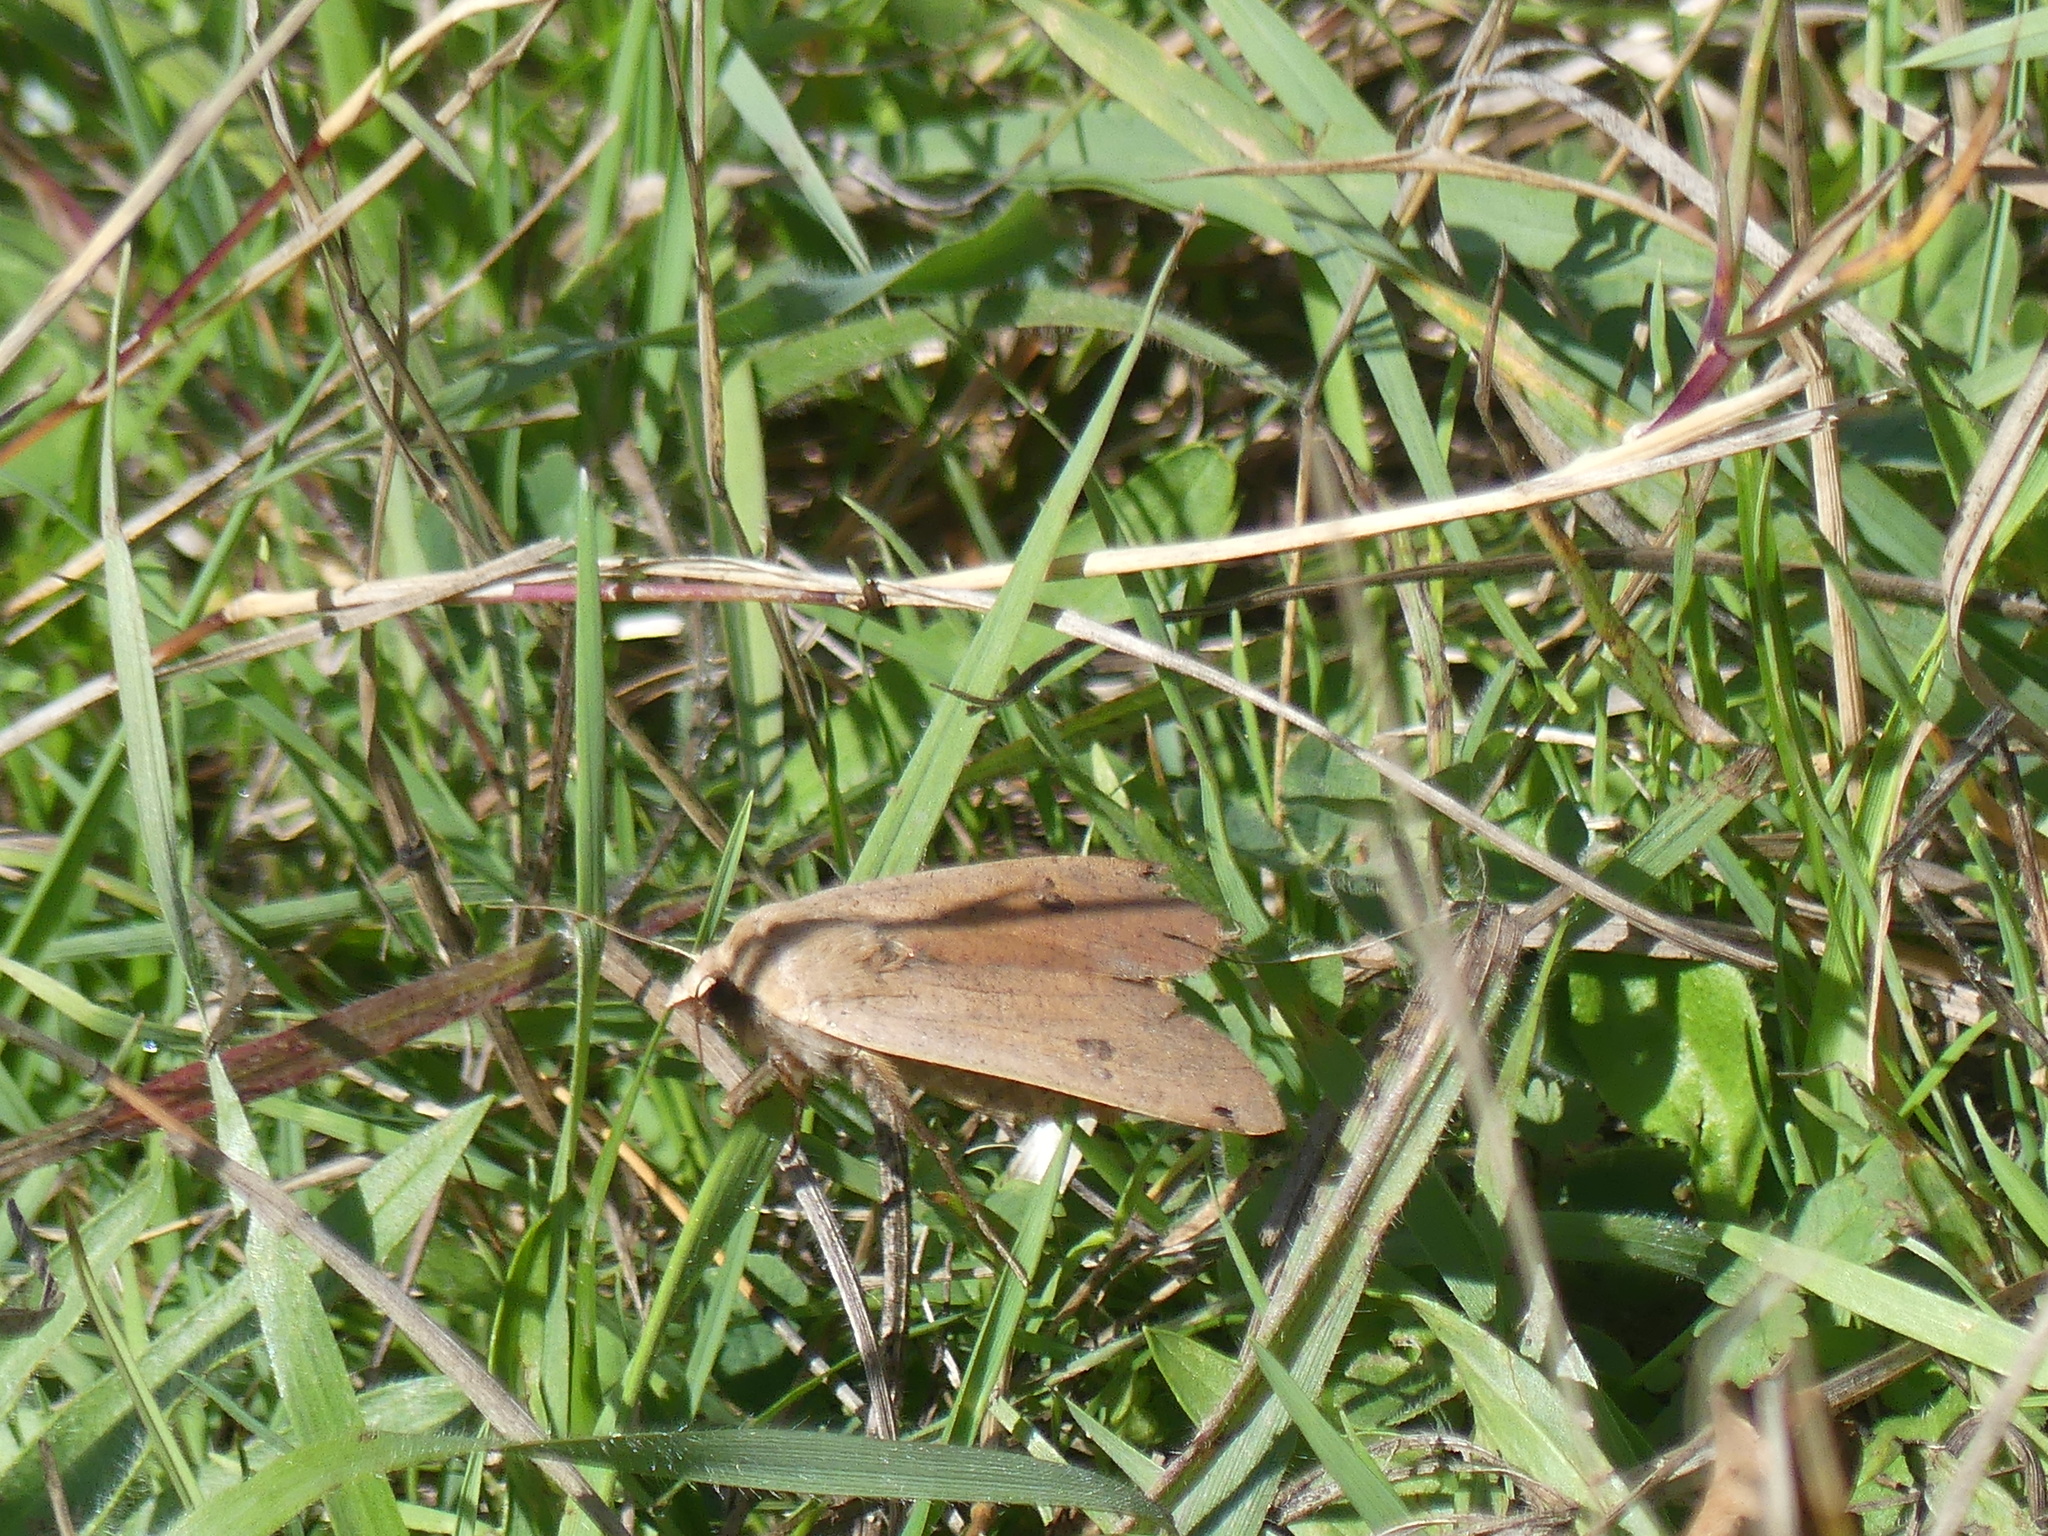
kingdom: Animalia
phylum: Arthropoda
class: Insecta
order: Lepidoptera
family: Noctuidae
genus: Noctua
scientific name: Noctua pronuba
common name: Large yellow underwing
